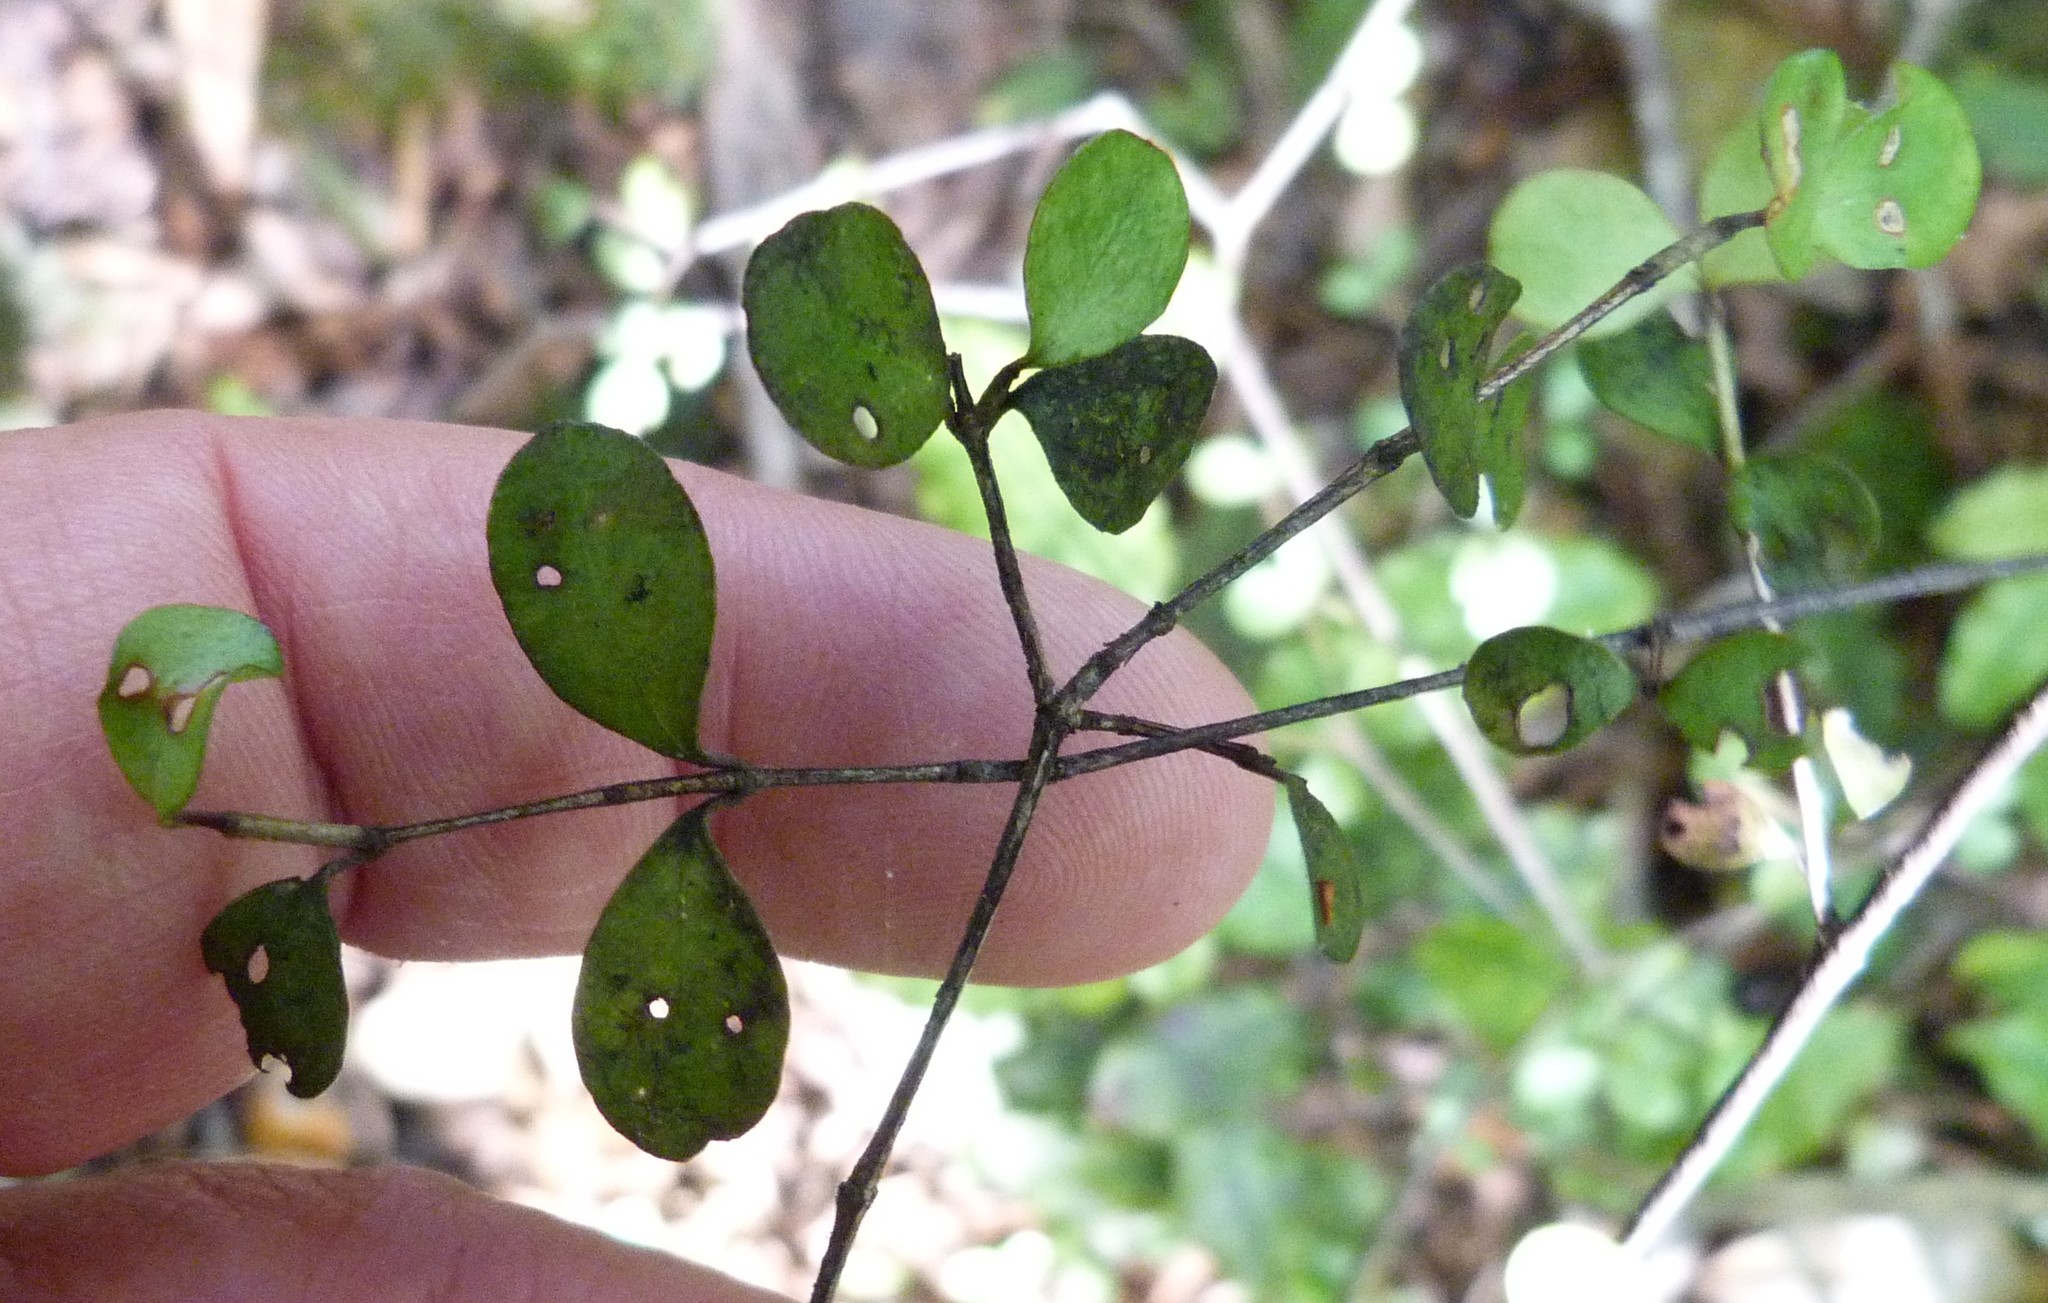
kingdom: Plantae
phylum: Tracheophyta
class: Magnoliopsida
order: Myrtales
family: Myrtaceae
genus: Neomyrtus
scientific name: Neomyrtus pedunculata
